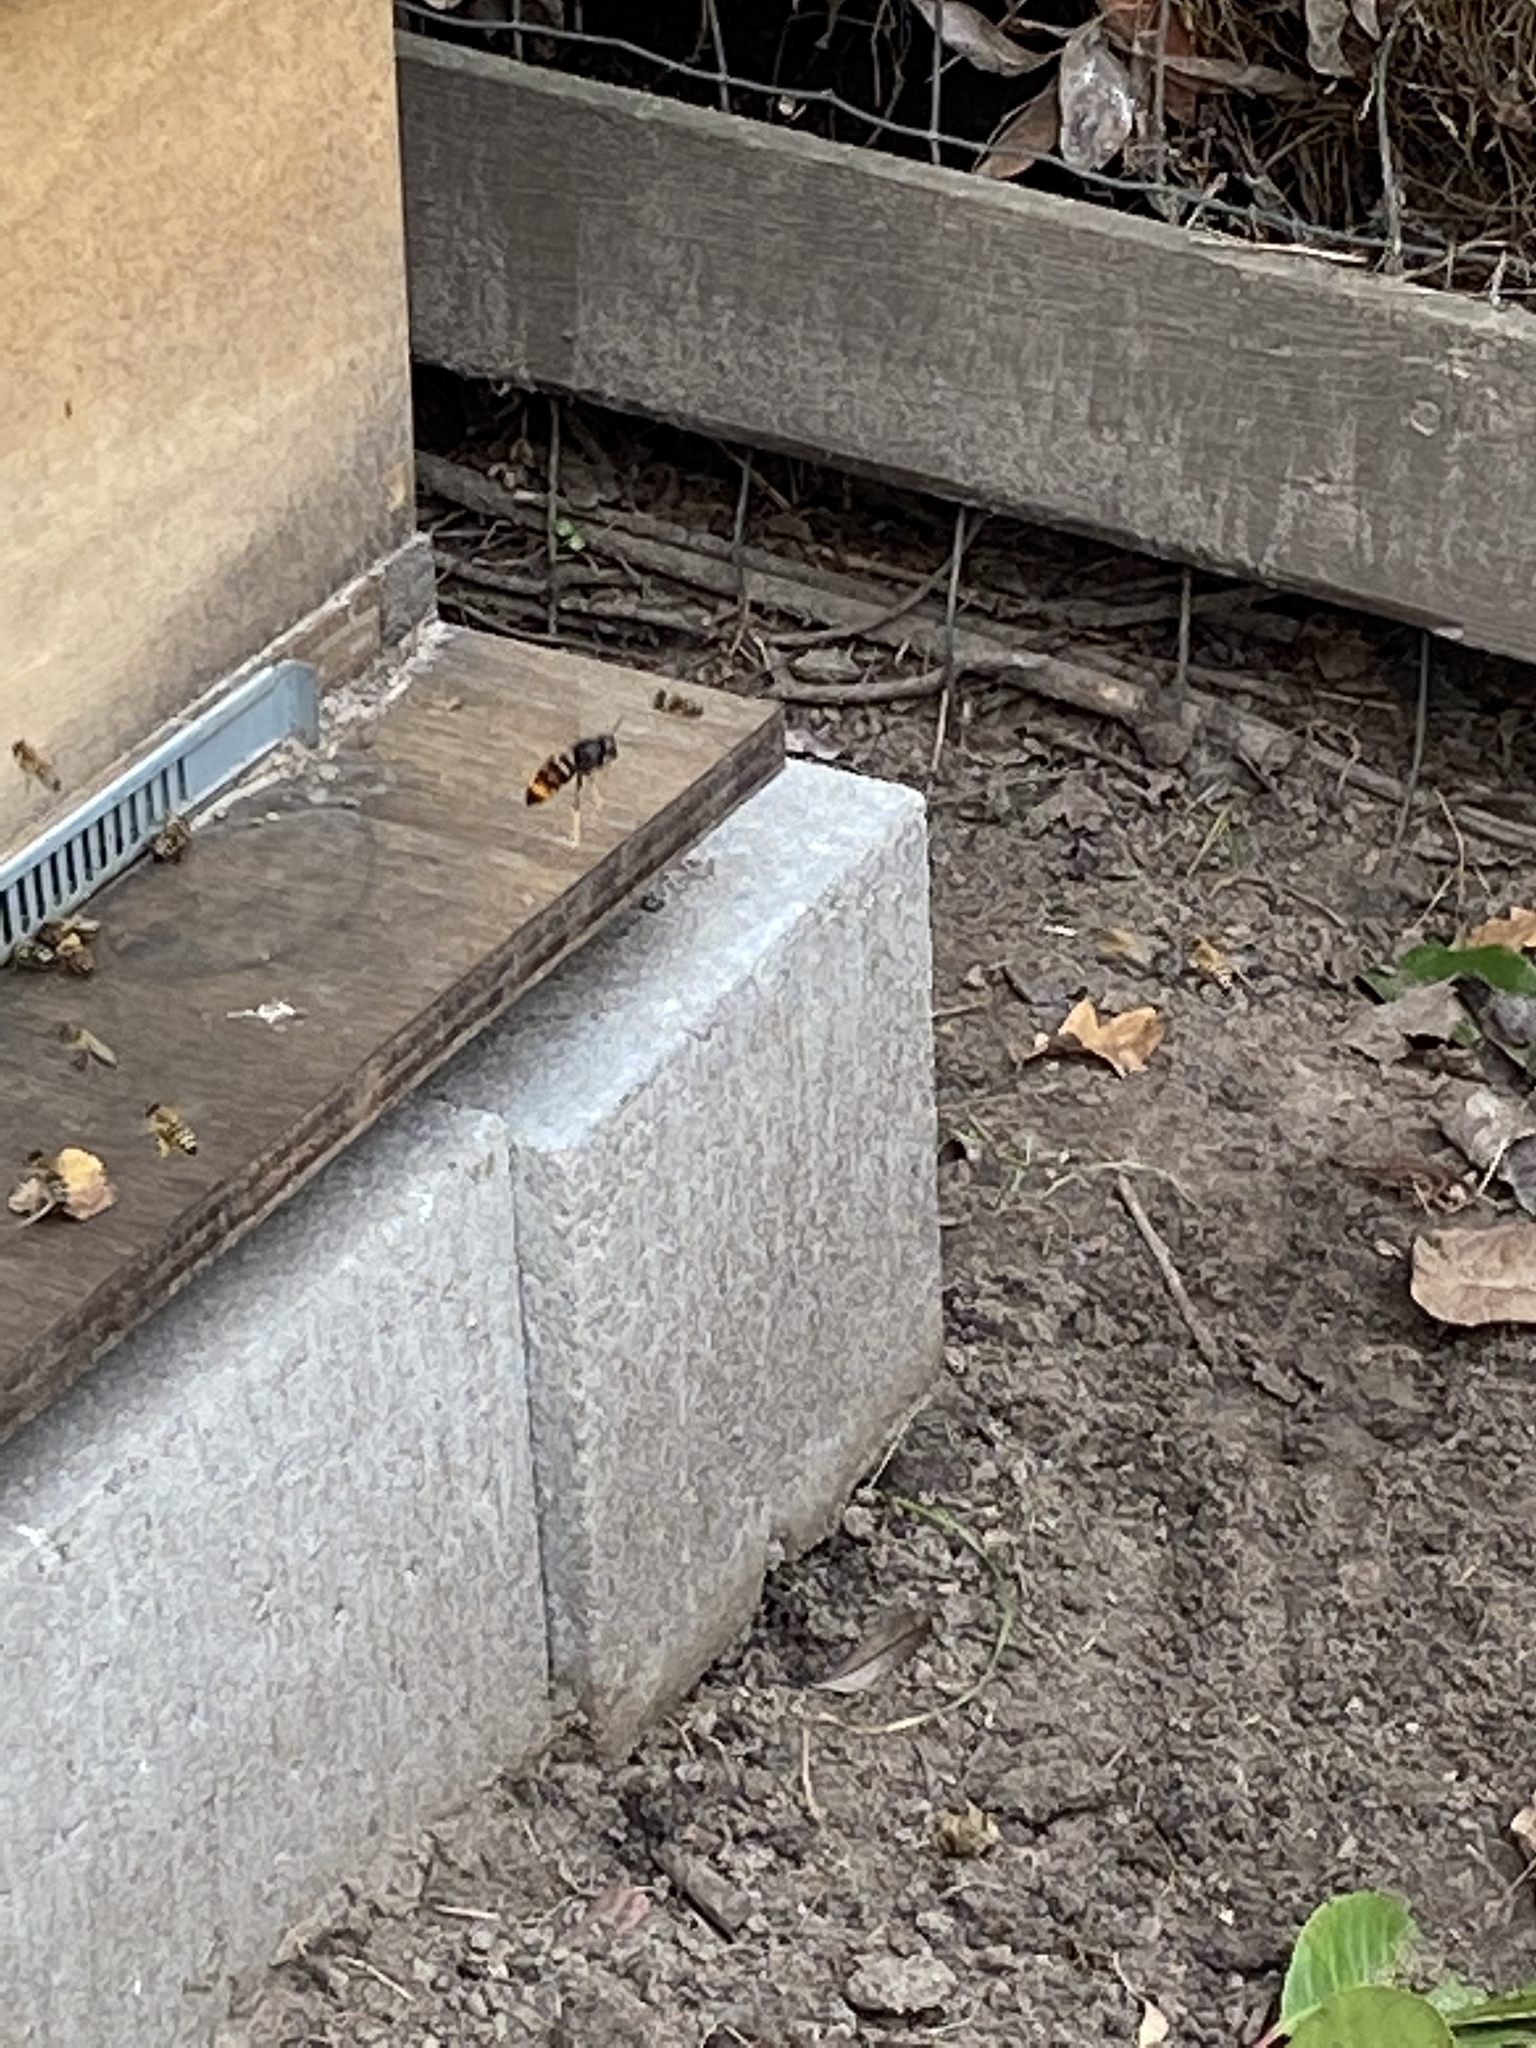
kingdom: Animalia
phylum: Arthropoda
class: Insecta
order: Hymenoptera
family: Vespidae
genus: Vespa
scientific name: Vespa velutina
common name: Asian hornet
